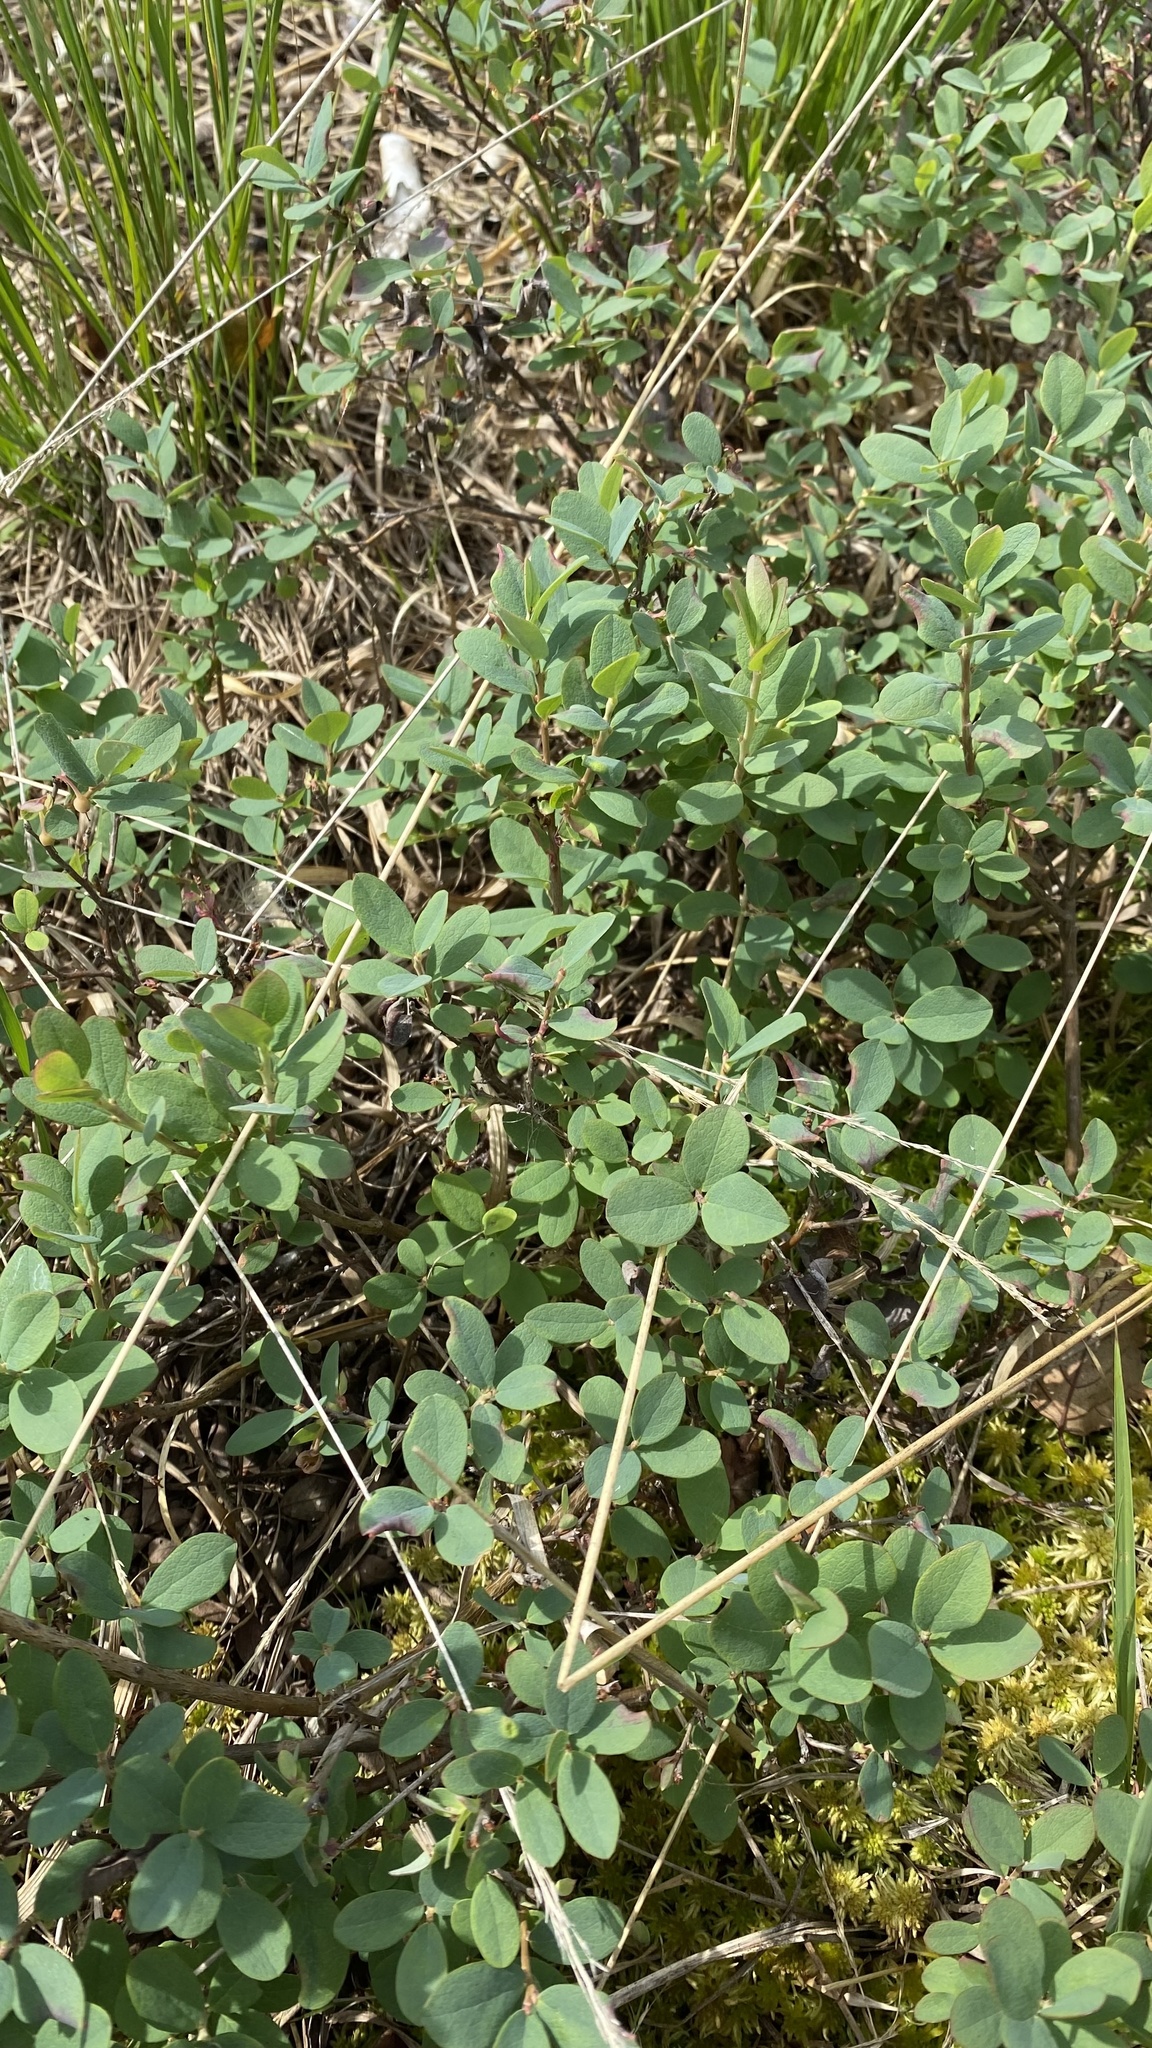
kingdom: Plantae
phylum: Tracheophyta
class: Magnoliopsida
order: Ericales
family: Ericaceae
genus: Vaccinium
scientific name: Vaccinium uliginosum
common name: Bog bilberry
